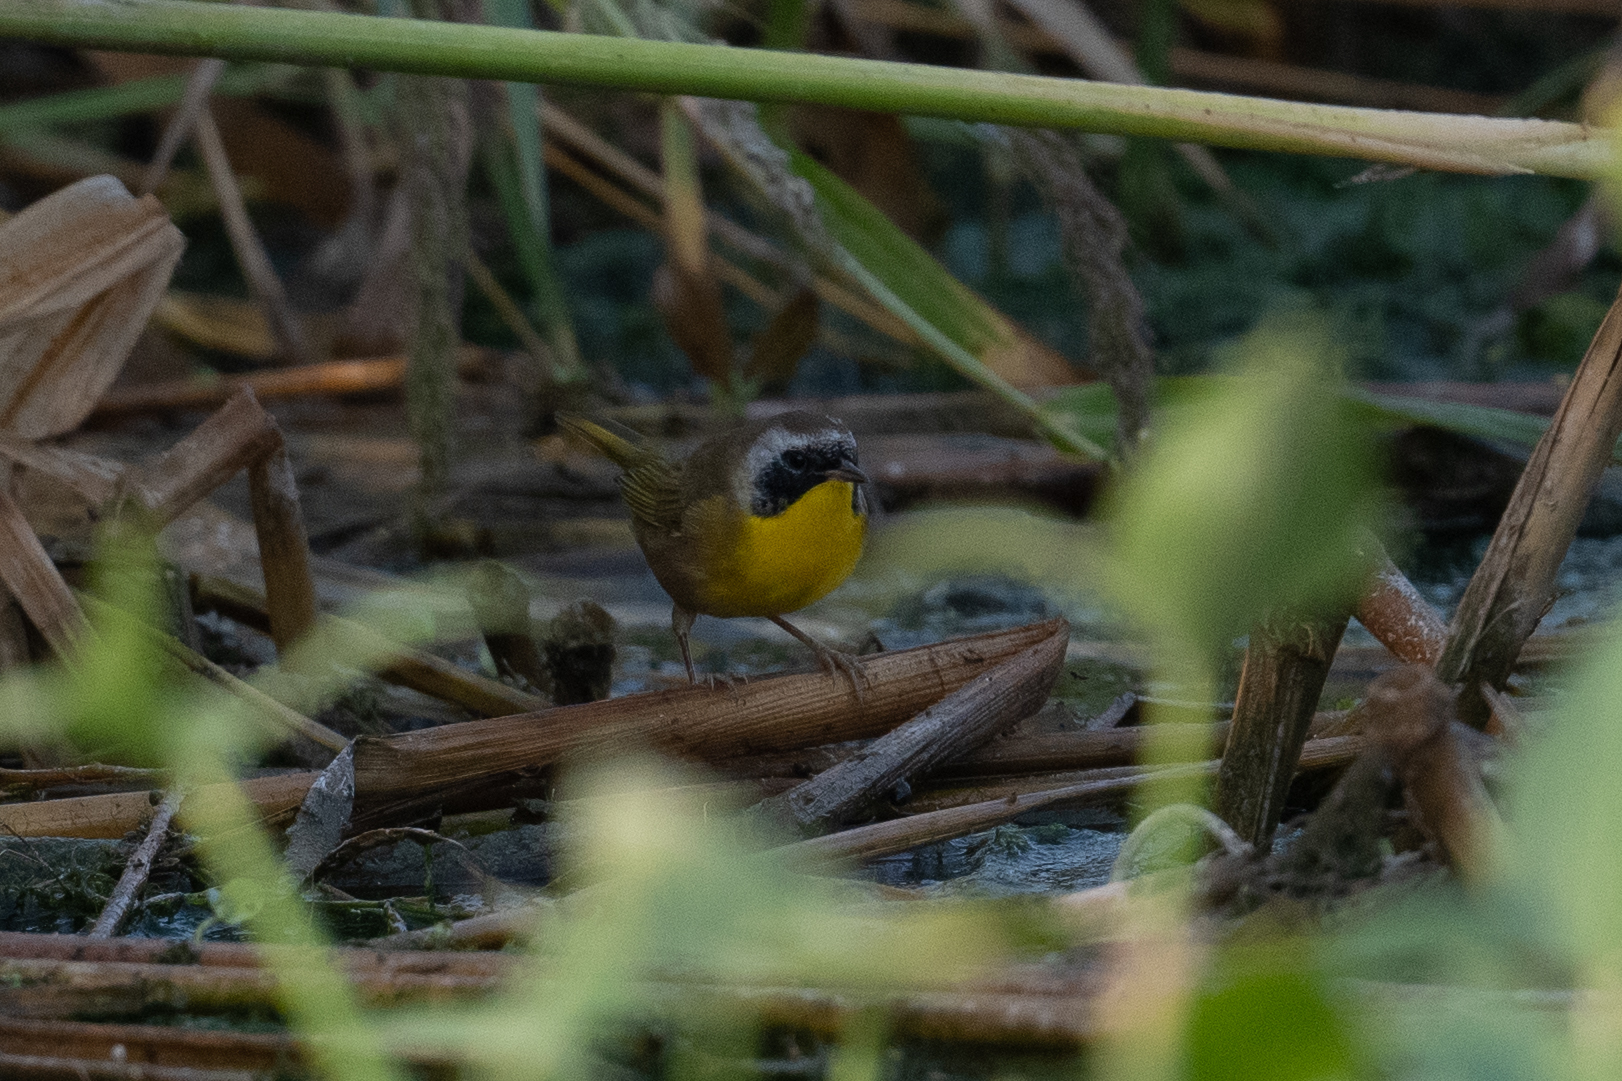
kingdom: Animalia
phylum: Chordata
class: Aves
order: Passeriformes
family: Parulidae
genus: Geothlypis
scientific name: Geothlypis trichas
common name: Common yellowthroat
